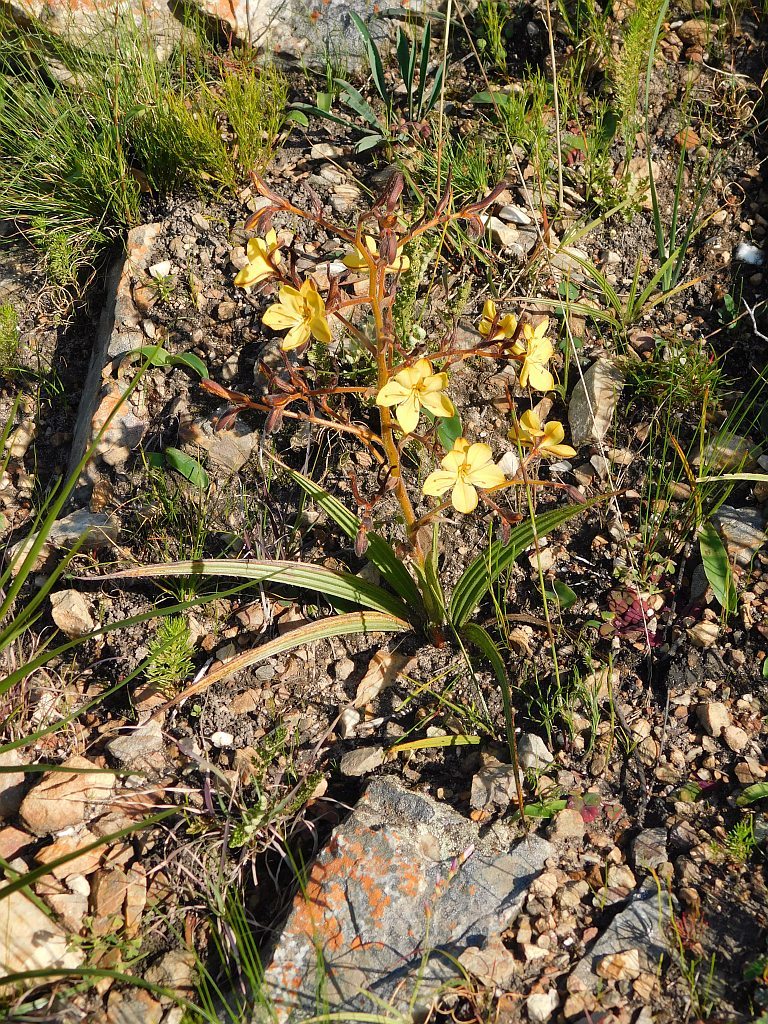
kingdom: Plantae
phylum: Tracheophyta
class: Liliopsida
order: Commelinales
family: Haemodoraceae
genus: Wachendorfia
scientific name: Wachendorfia paniculata
